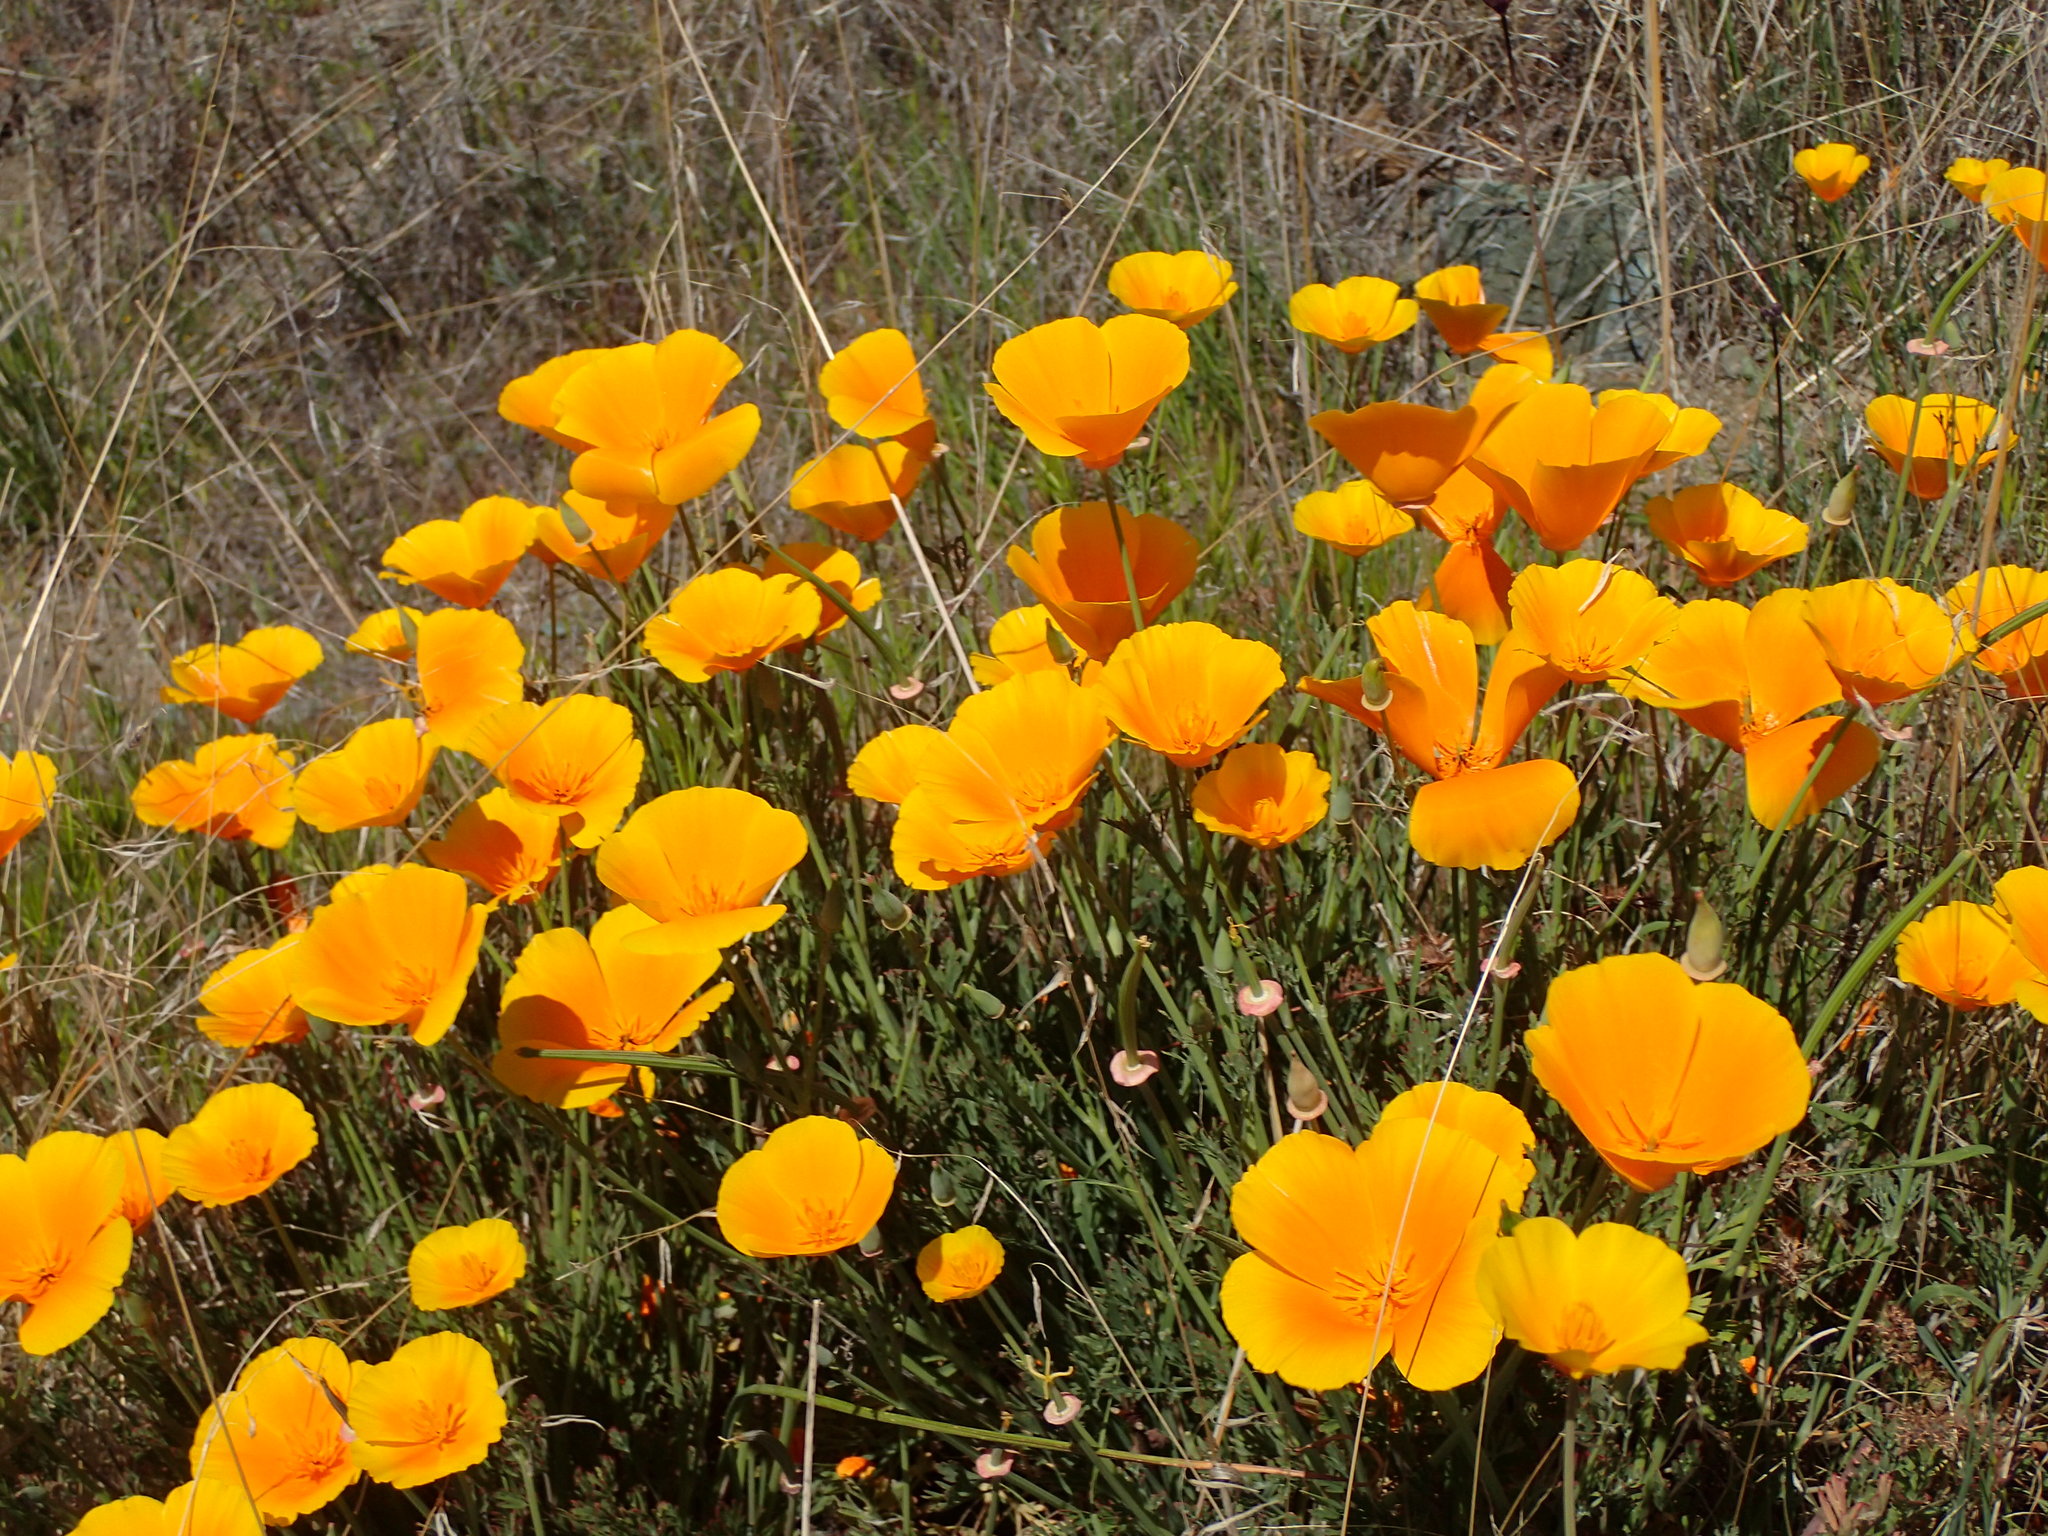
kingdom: Plantae
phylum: Tracheophyta
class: Magnoliopsida
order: Ranunculales
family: Papaveraceae
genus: Eschscholzia
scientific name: Eschscholzia californica
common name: California poppy
